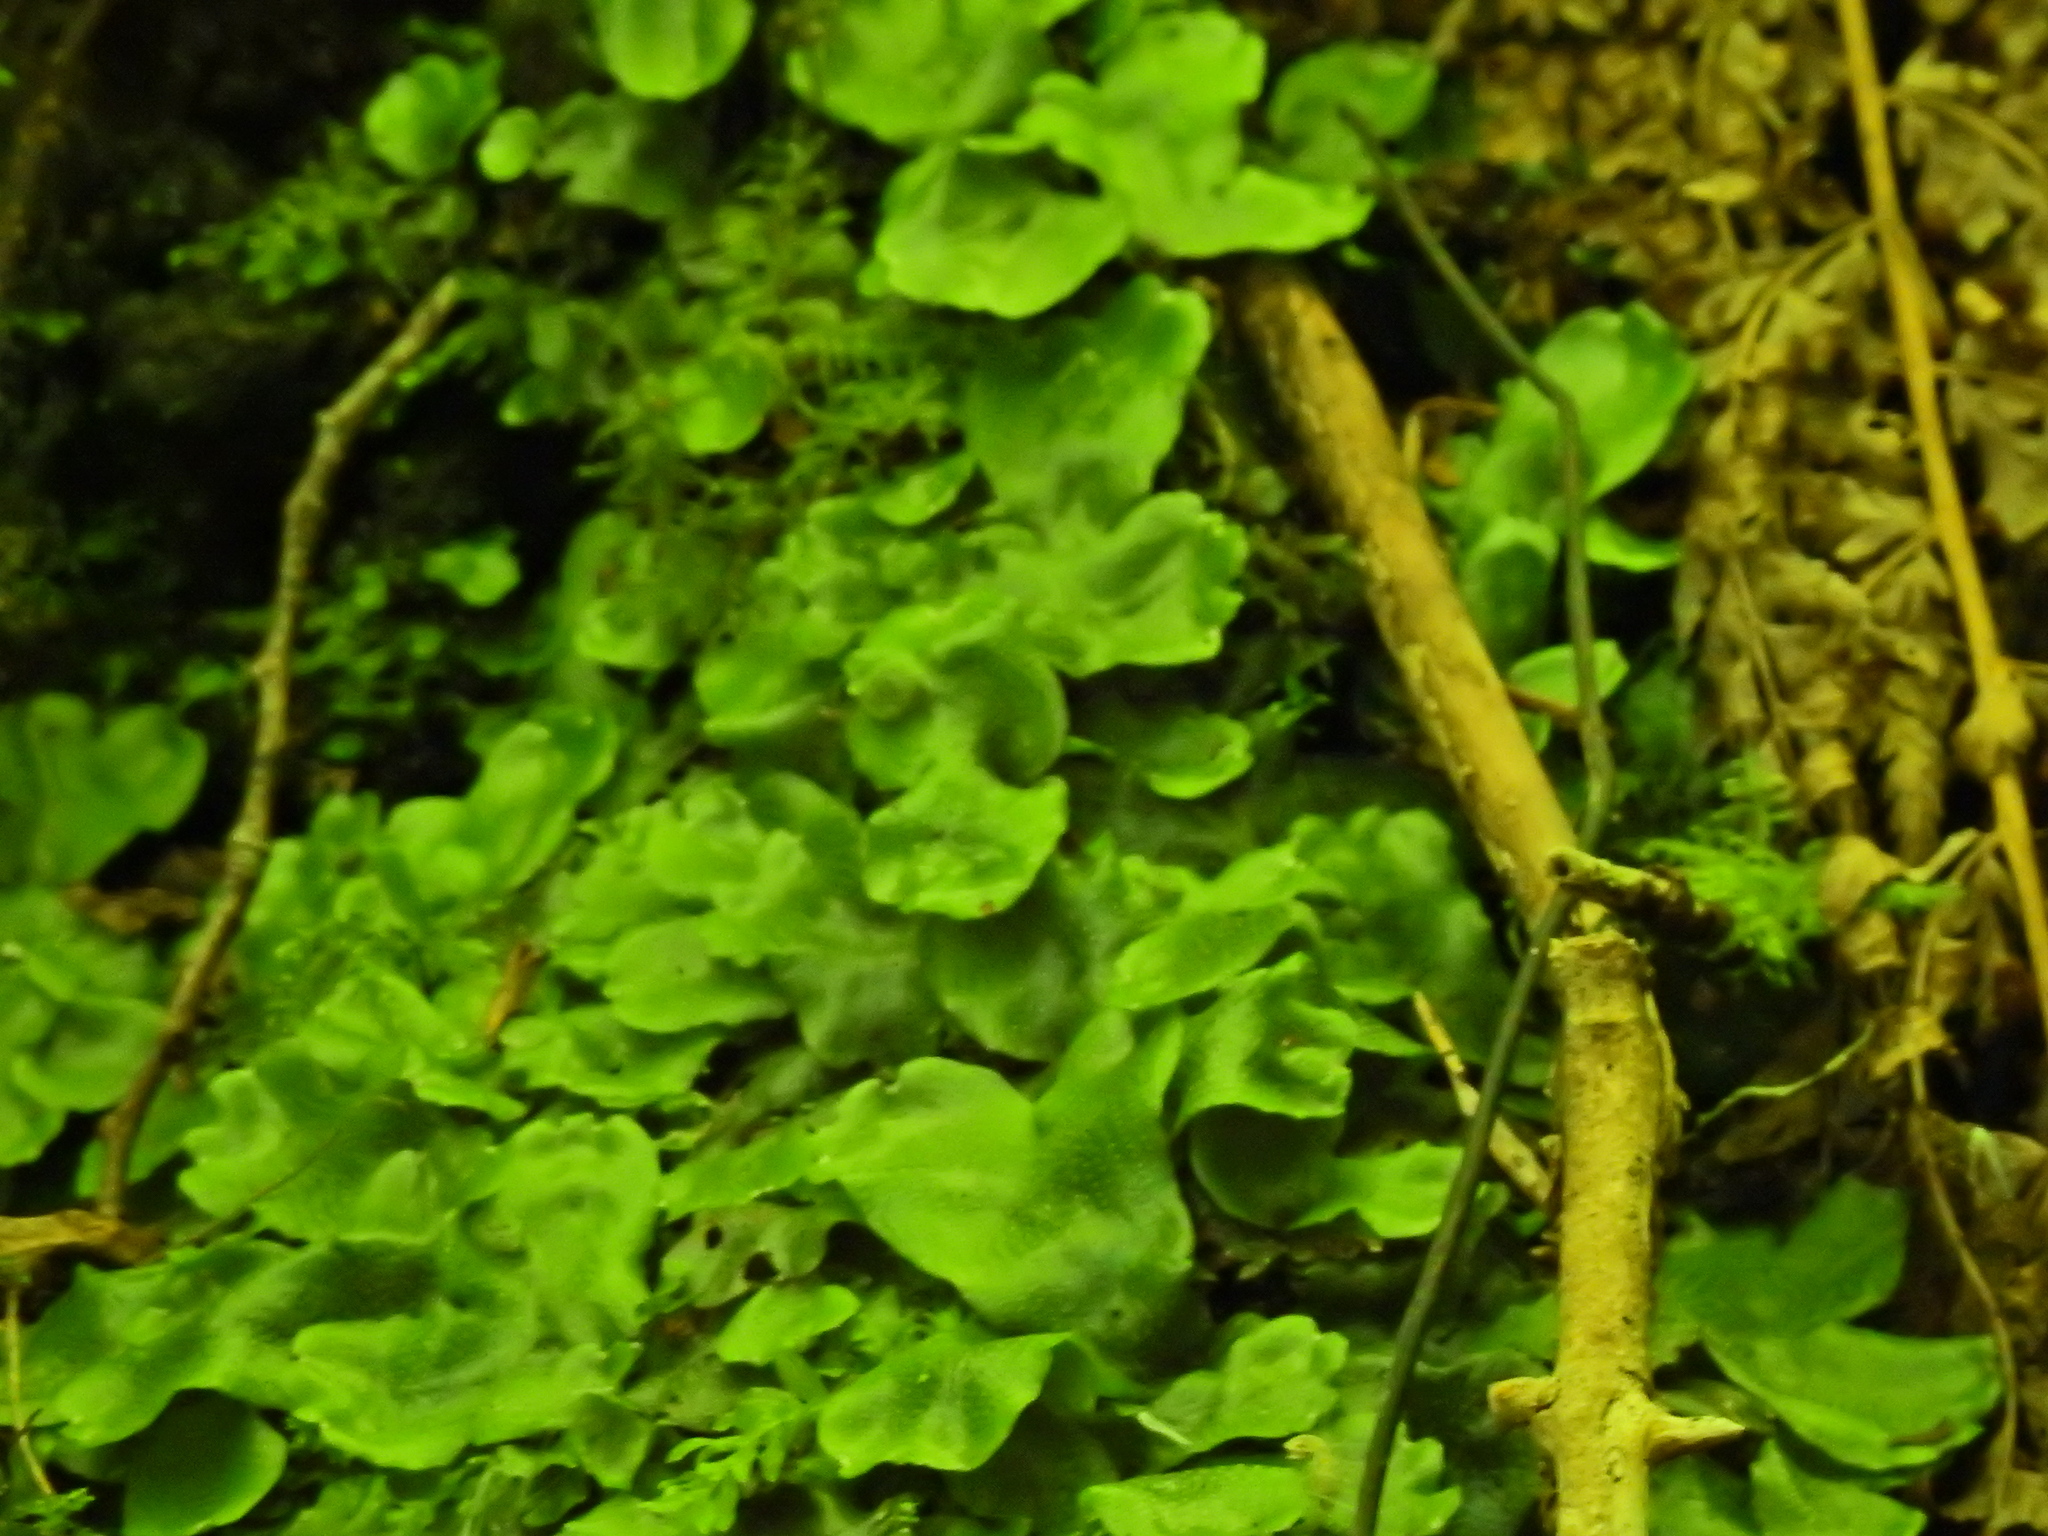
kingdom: Plantae
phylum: Marchantiophyta
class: Marchantiopsida
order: Marchantiales
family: Conocephalaceae
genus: Conocephalum
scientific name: Conocephalum conicum
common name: Great scented liverwort
